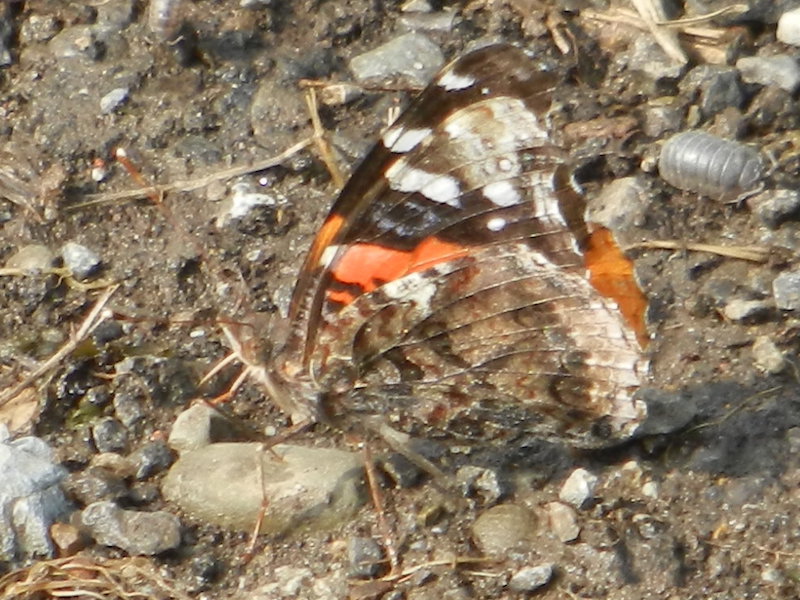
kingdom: Animalia
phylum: Arthropoda
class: Insecta
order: Lepidoptera
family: Nymphalidae
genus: Vanessa
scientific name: Vanessa atalanta
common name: Red admiral
